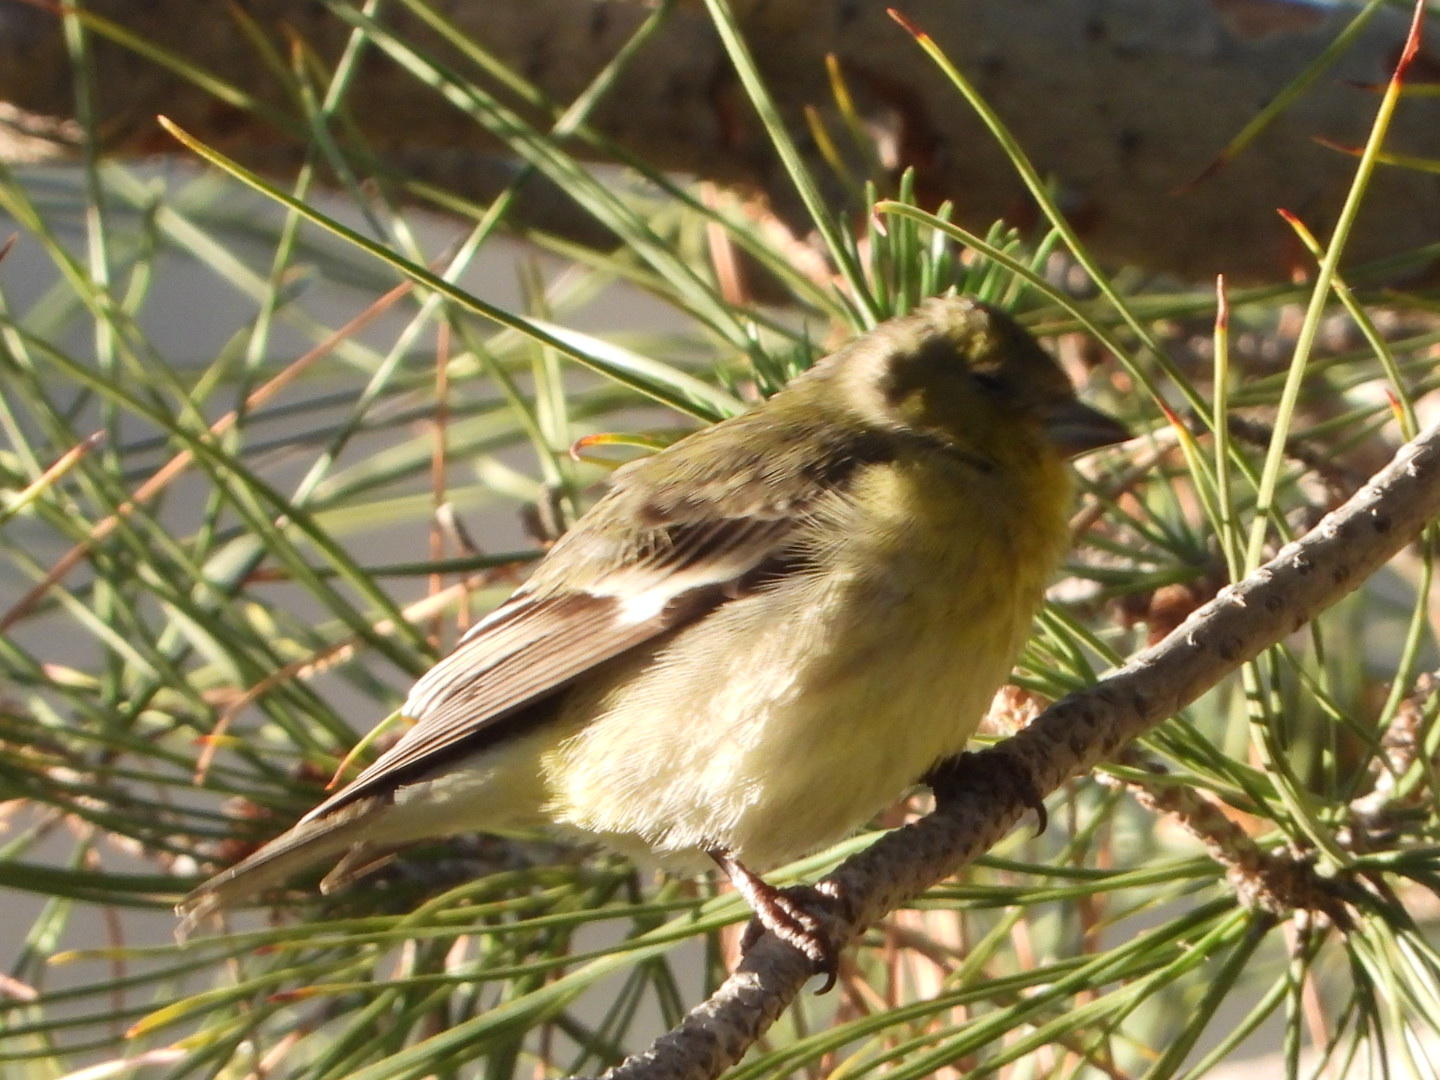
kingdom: Animalia
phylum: Chordata
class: Aves
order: Passeriformes
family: Fringillidae
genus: Spinus
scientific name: Spinus psaltria
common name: Lesser goldfinch
